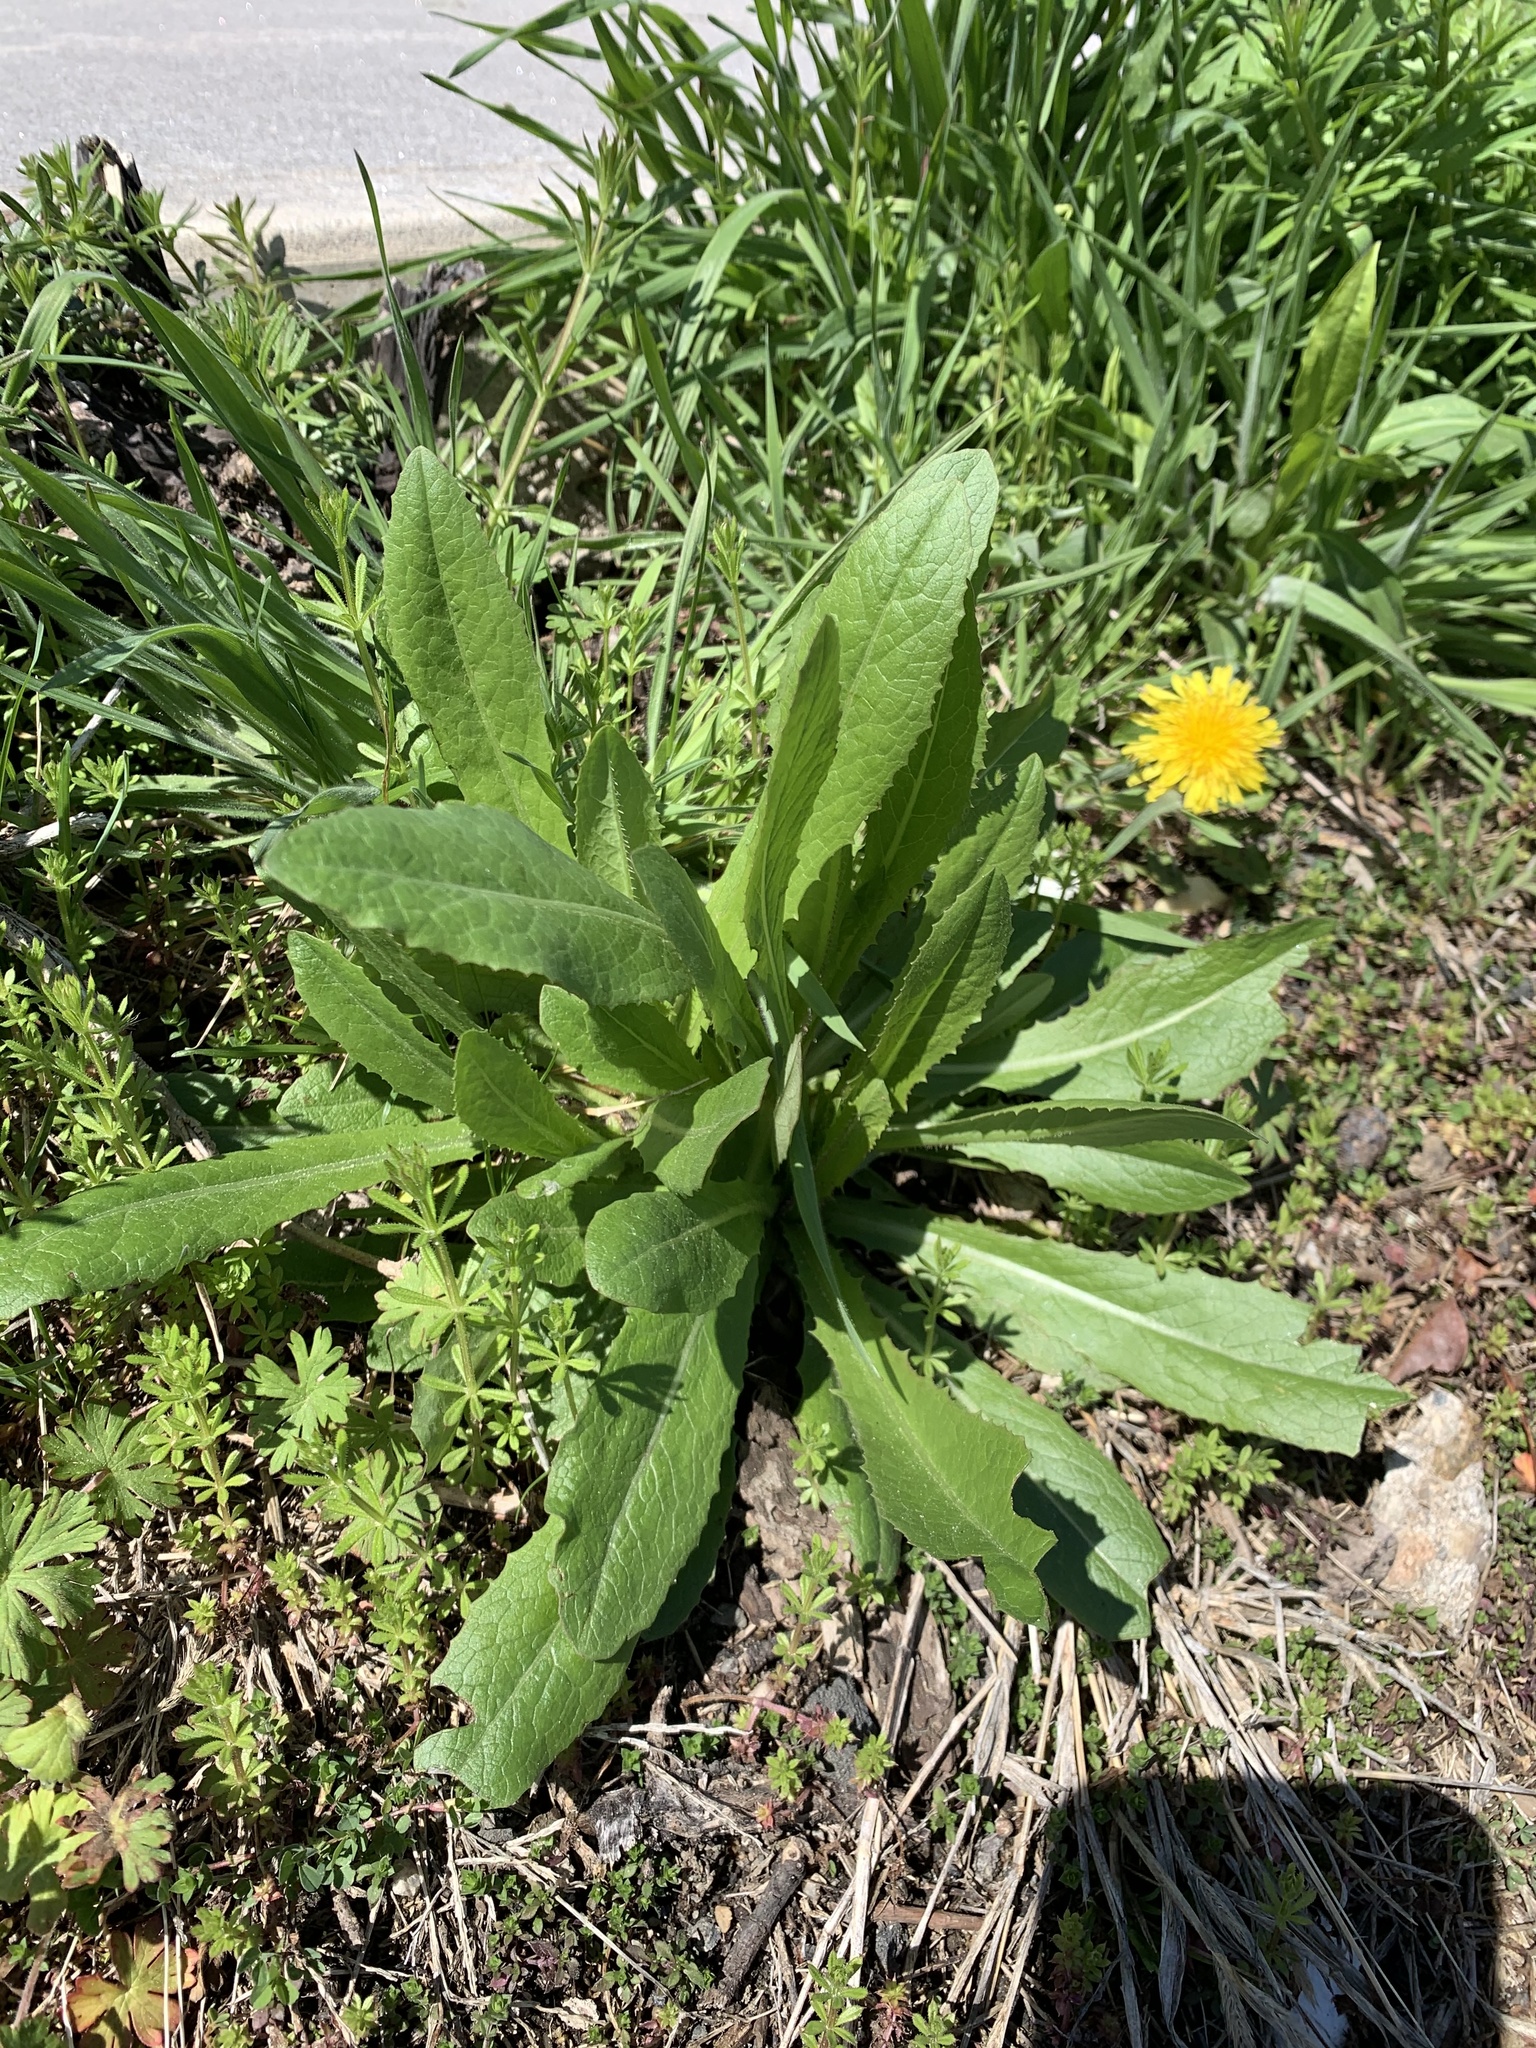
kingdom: Plantae
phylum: Tracheophyta
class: Magnoliopsida
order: Asterales
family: Asteraceae
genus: Lactuca
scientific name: Lactuca serriola
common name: Prickly lettuce
